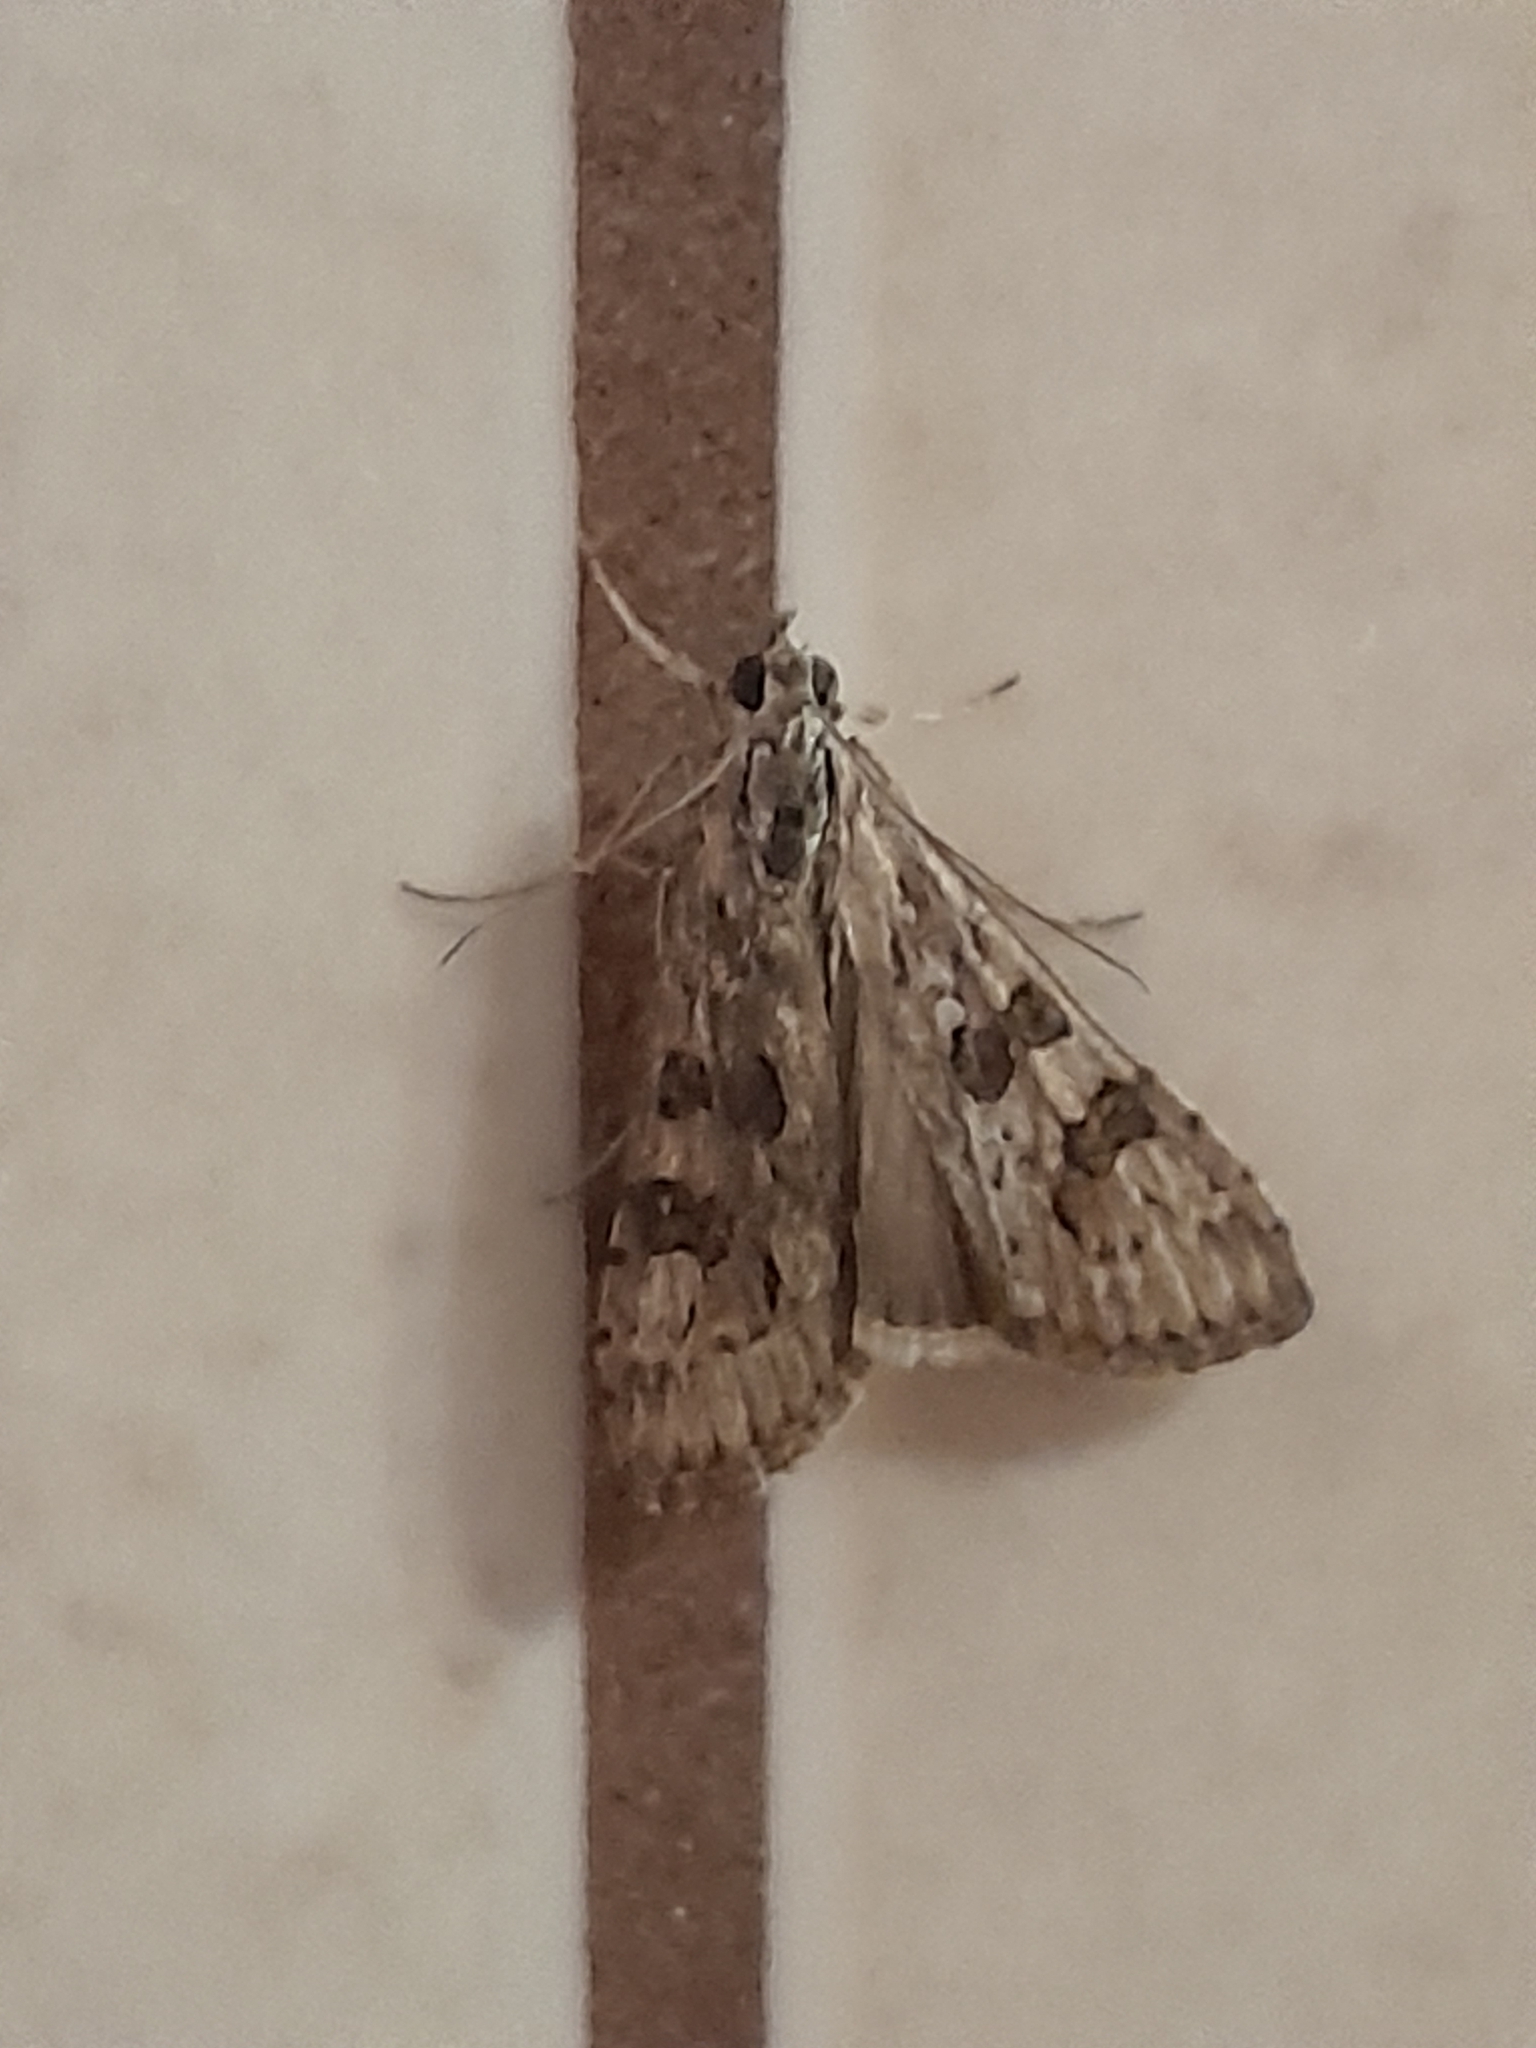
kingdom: Animalia
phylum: Arthropoda
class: Insecta
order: Lepidoptera
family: Crambidae
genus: Nomophila
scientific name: Nomophila noctuella
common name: Rush veneer
